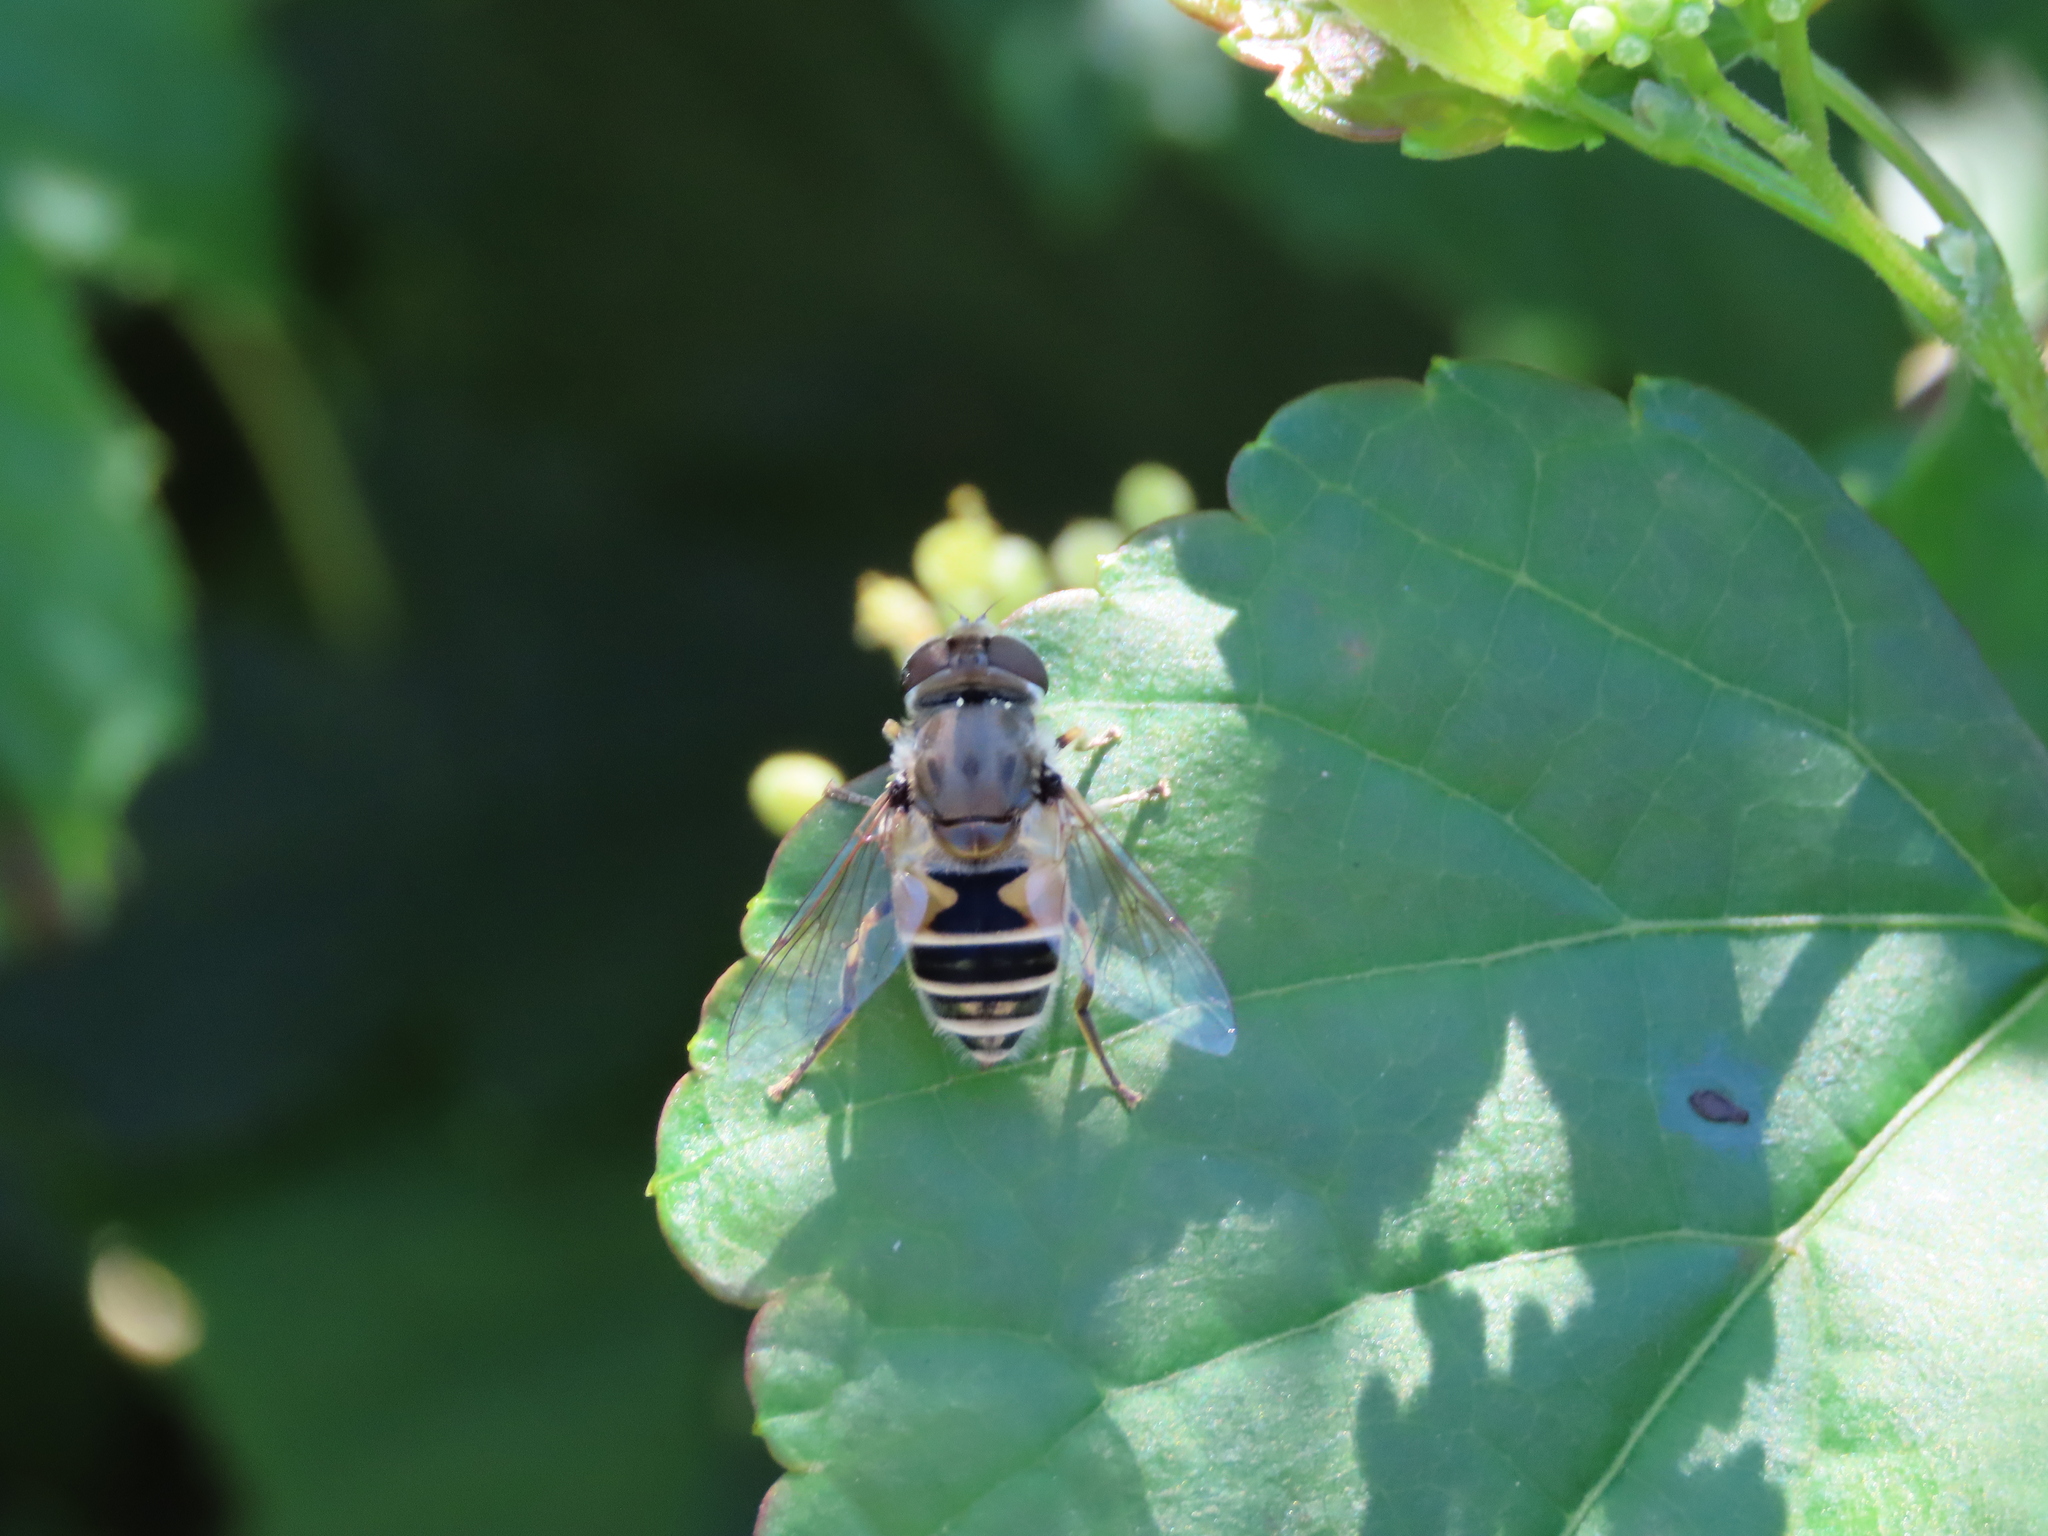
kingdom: Animalia
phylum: Arthropoda
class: Insecta
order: Diptera
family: Syrphidae
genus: Eristalis
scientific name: Eristalis arbustorum
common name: Hover fly
